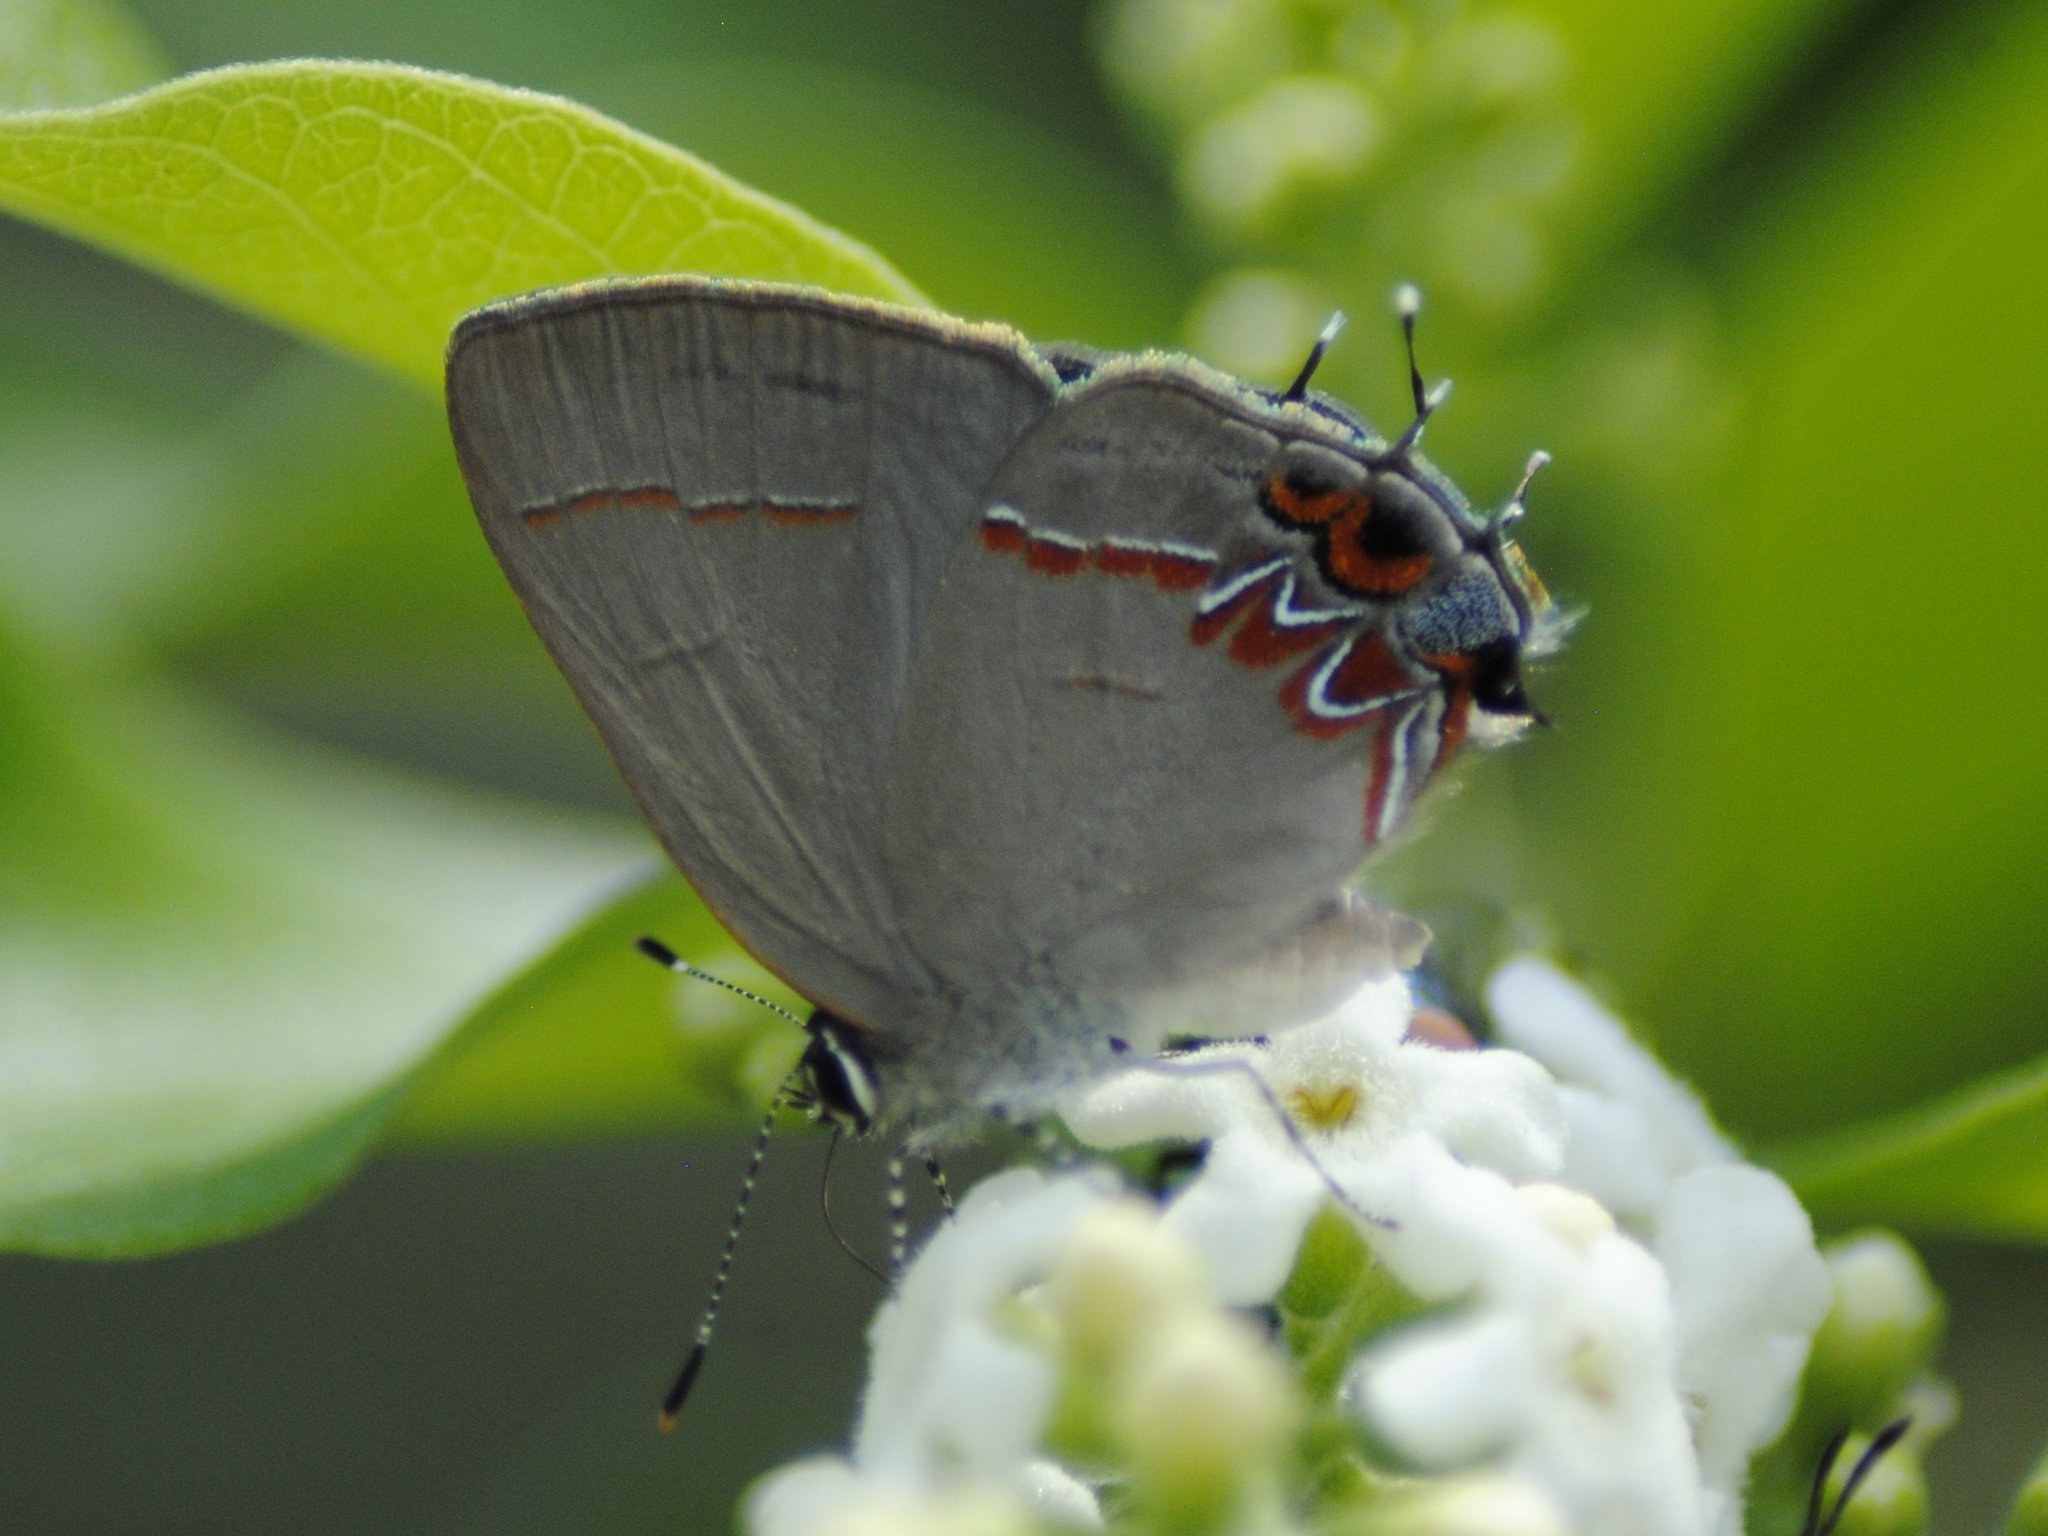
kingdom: Animalia
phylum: Arthropoda
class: Insecta
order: Lepidoptera
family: Lycaenidae
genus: Calycopis
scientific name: Calycopis isobeon
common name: Dusky-blue groundstreak
